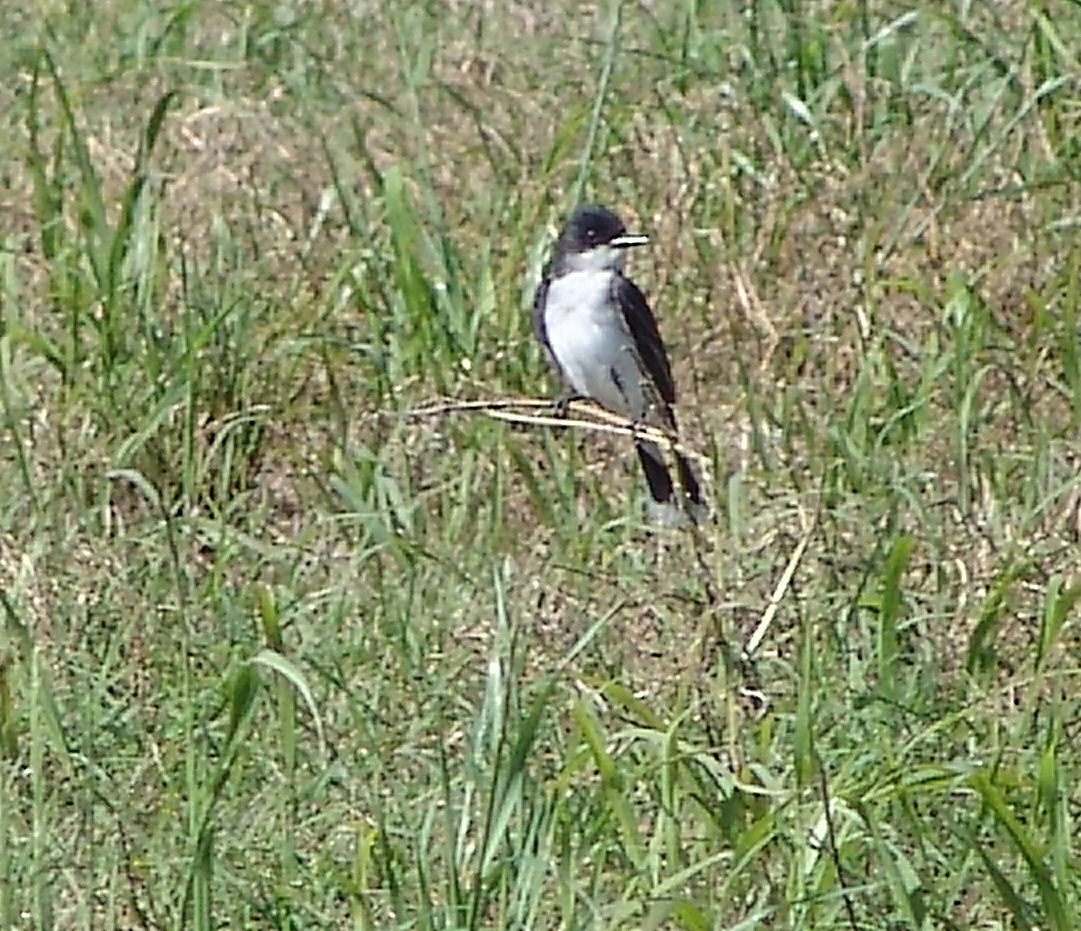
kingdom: Animalia
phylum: Chordata
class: Aves
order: Passeriformes
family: Tyrannidae
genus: Tyrannus
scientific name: Tyrannus tyrannus
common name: Eastern kingbird
